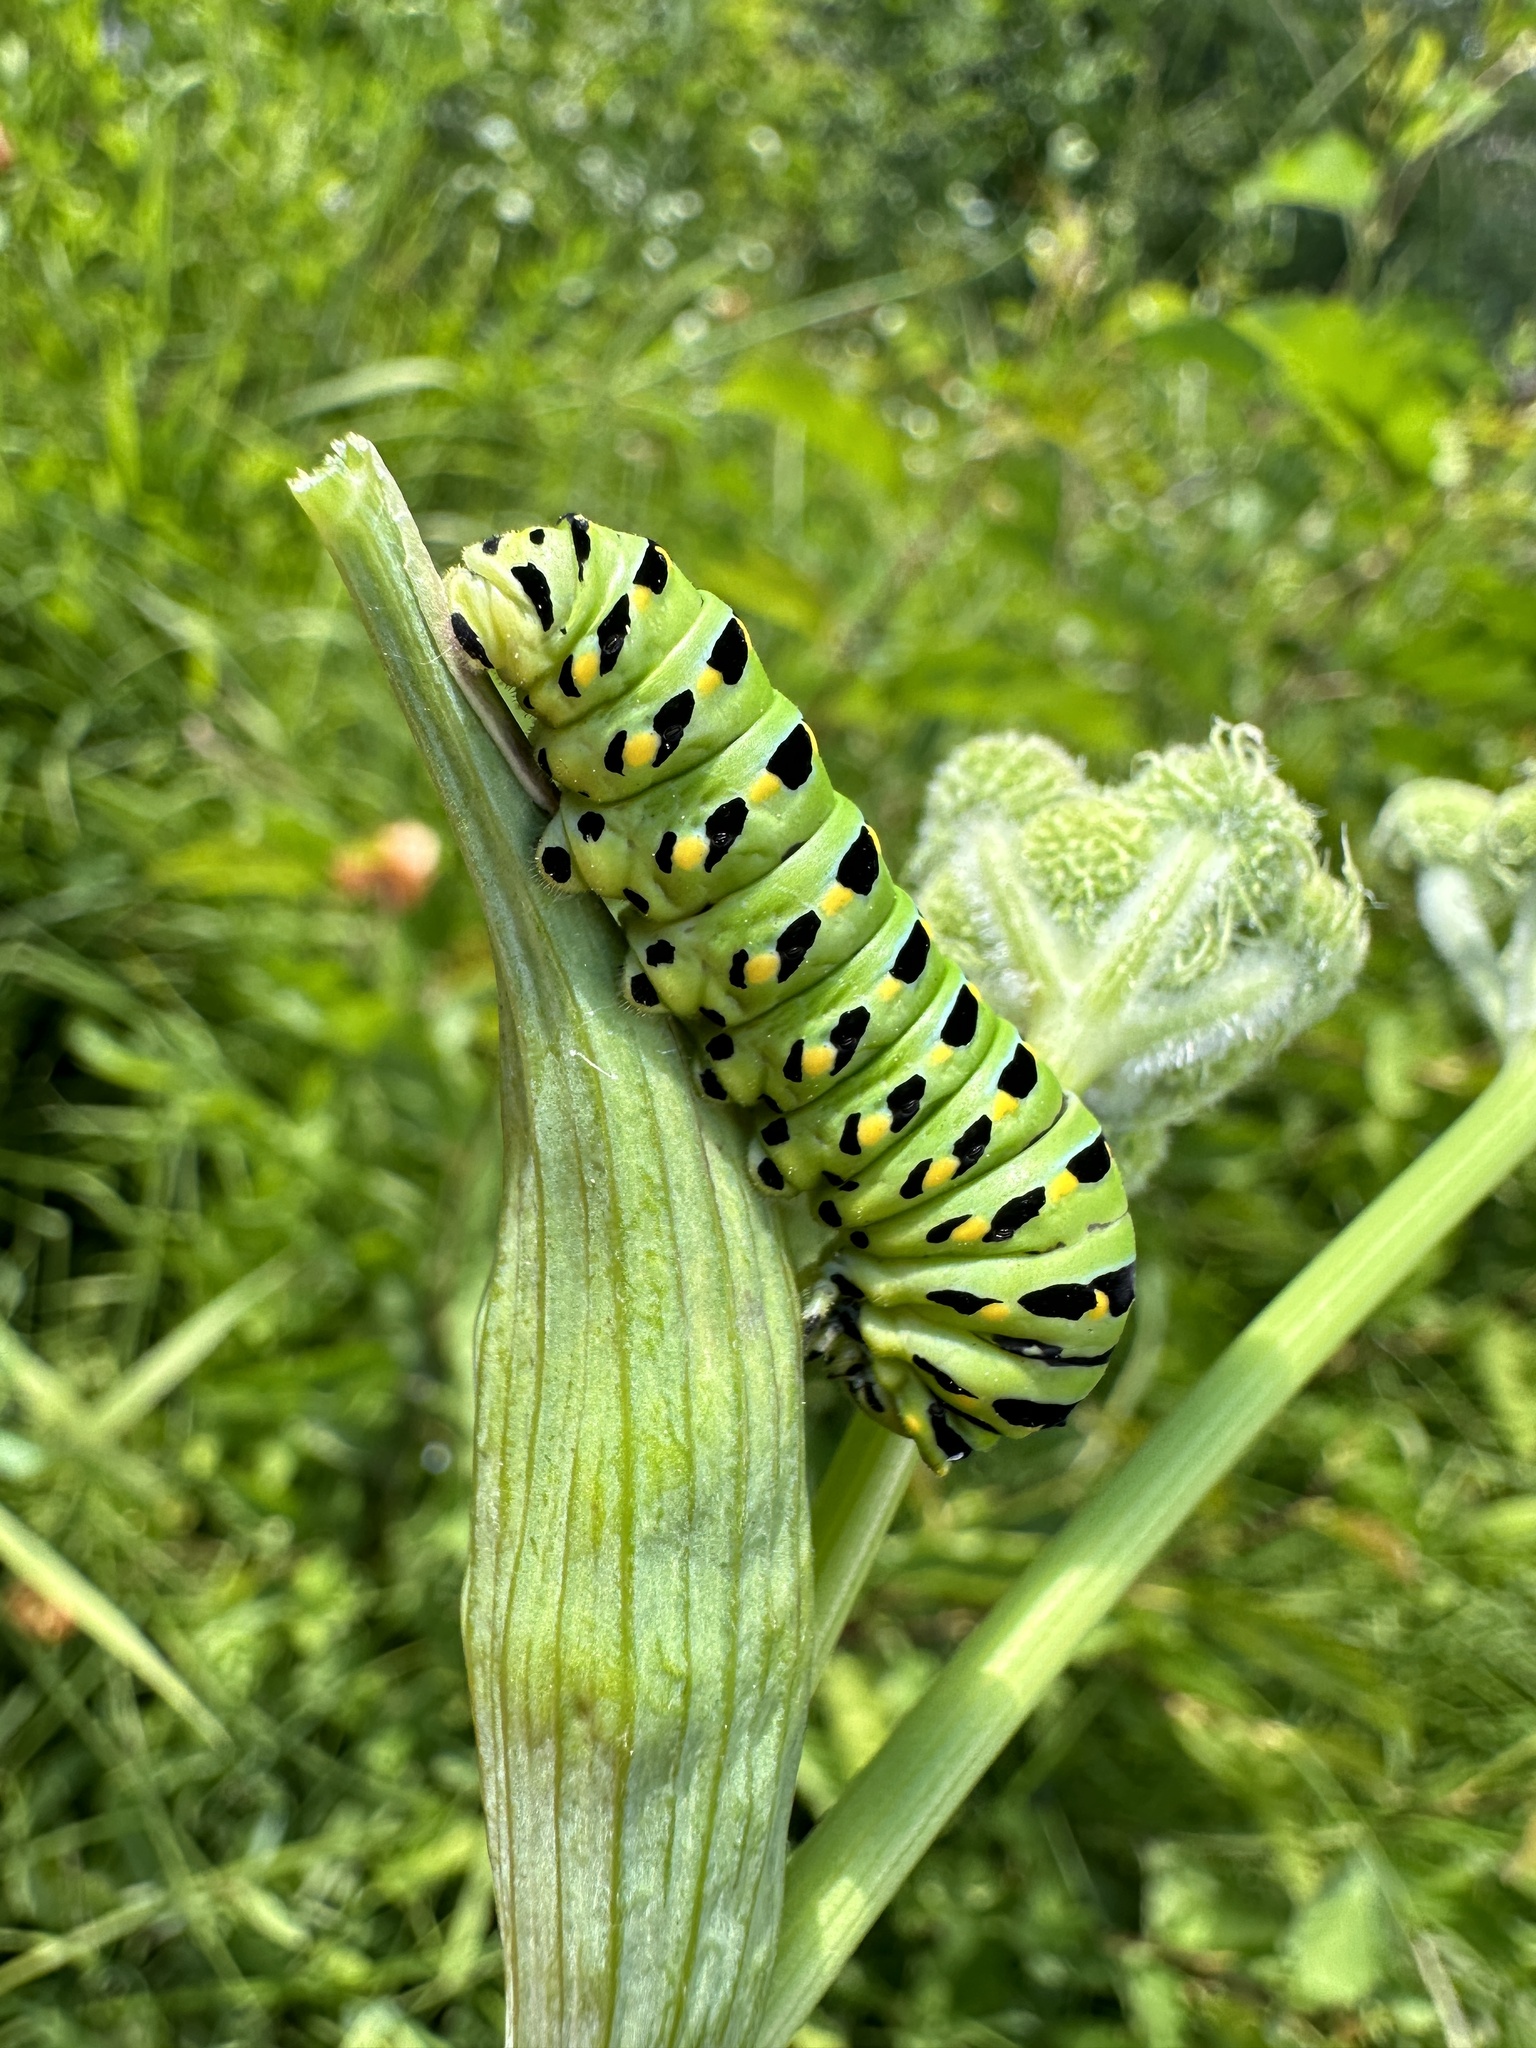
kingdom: Animalia
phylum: Arthropoda
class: Insecta
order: Lepidoptera
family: Papilionidae
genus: Papilio
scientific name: Papilio zelicaon
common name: Anise swallowtail
